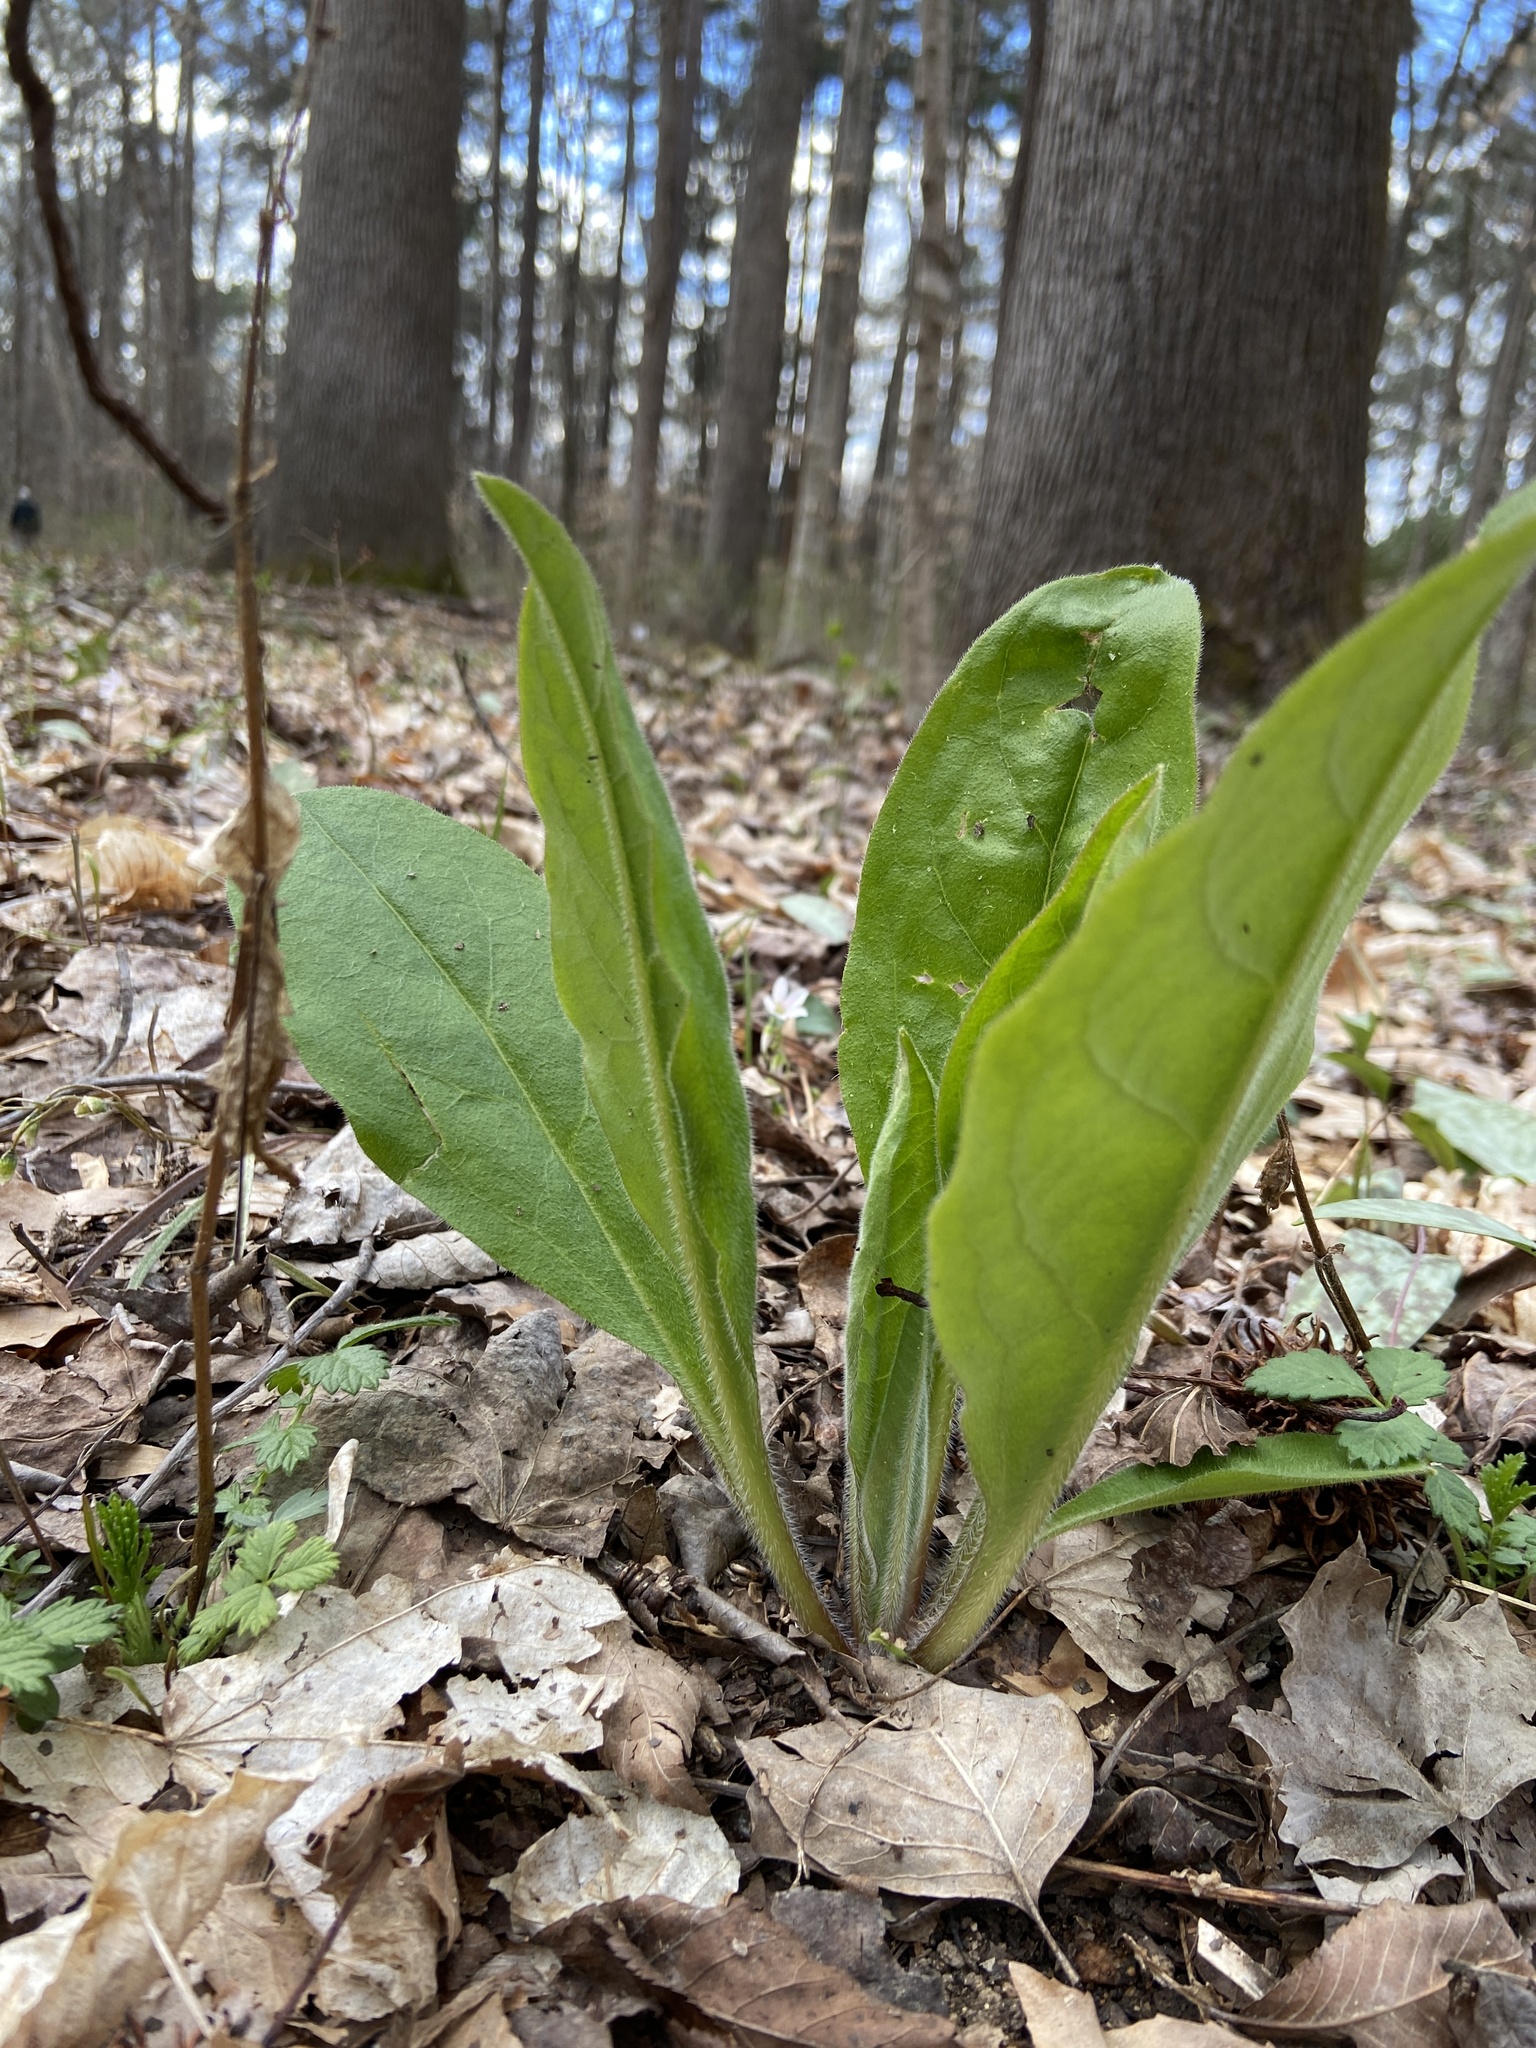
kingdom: Plantae
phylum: Tracheophyta
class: Magnoliopsida
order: Boraginales
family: Boraginaceae
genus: Andersonglossum
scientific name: Andersonglossum virginianum
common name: Wild comfrey
